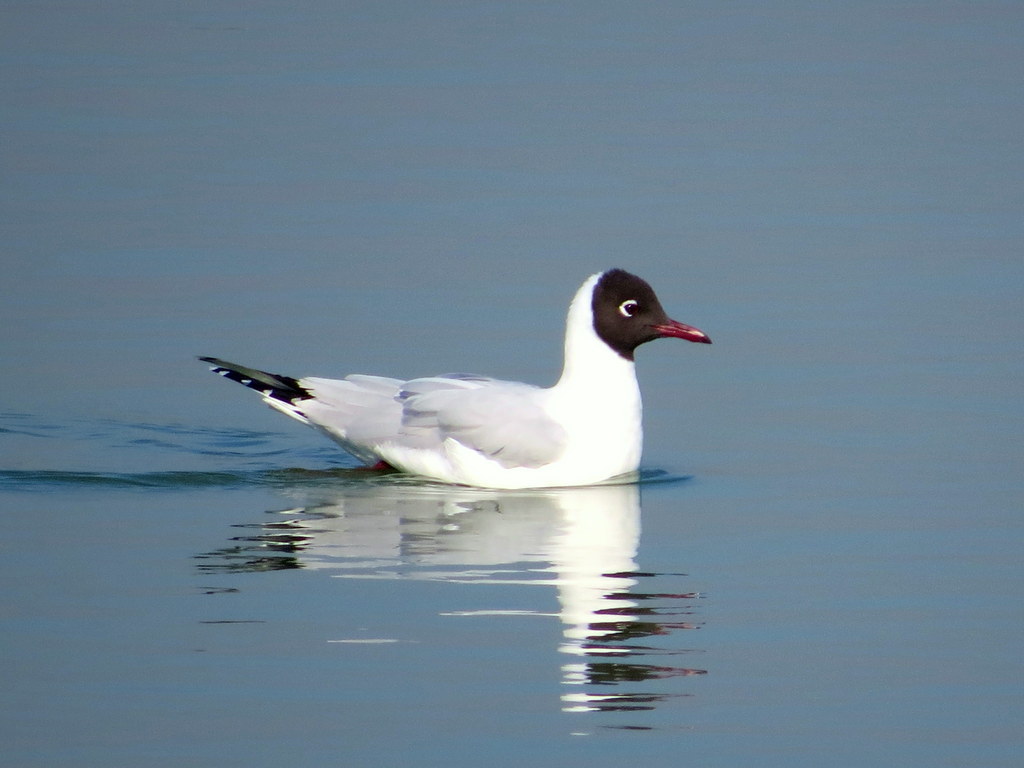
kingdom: Animalia
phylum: Chordata
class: Aves
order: Charadriiformes
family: Laridae
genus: Chroicocephalus
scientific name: Chroicocephalus maculipennis
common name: Brown-hooded gull
